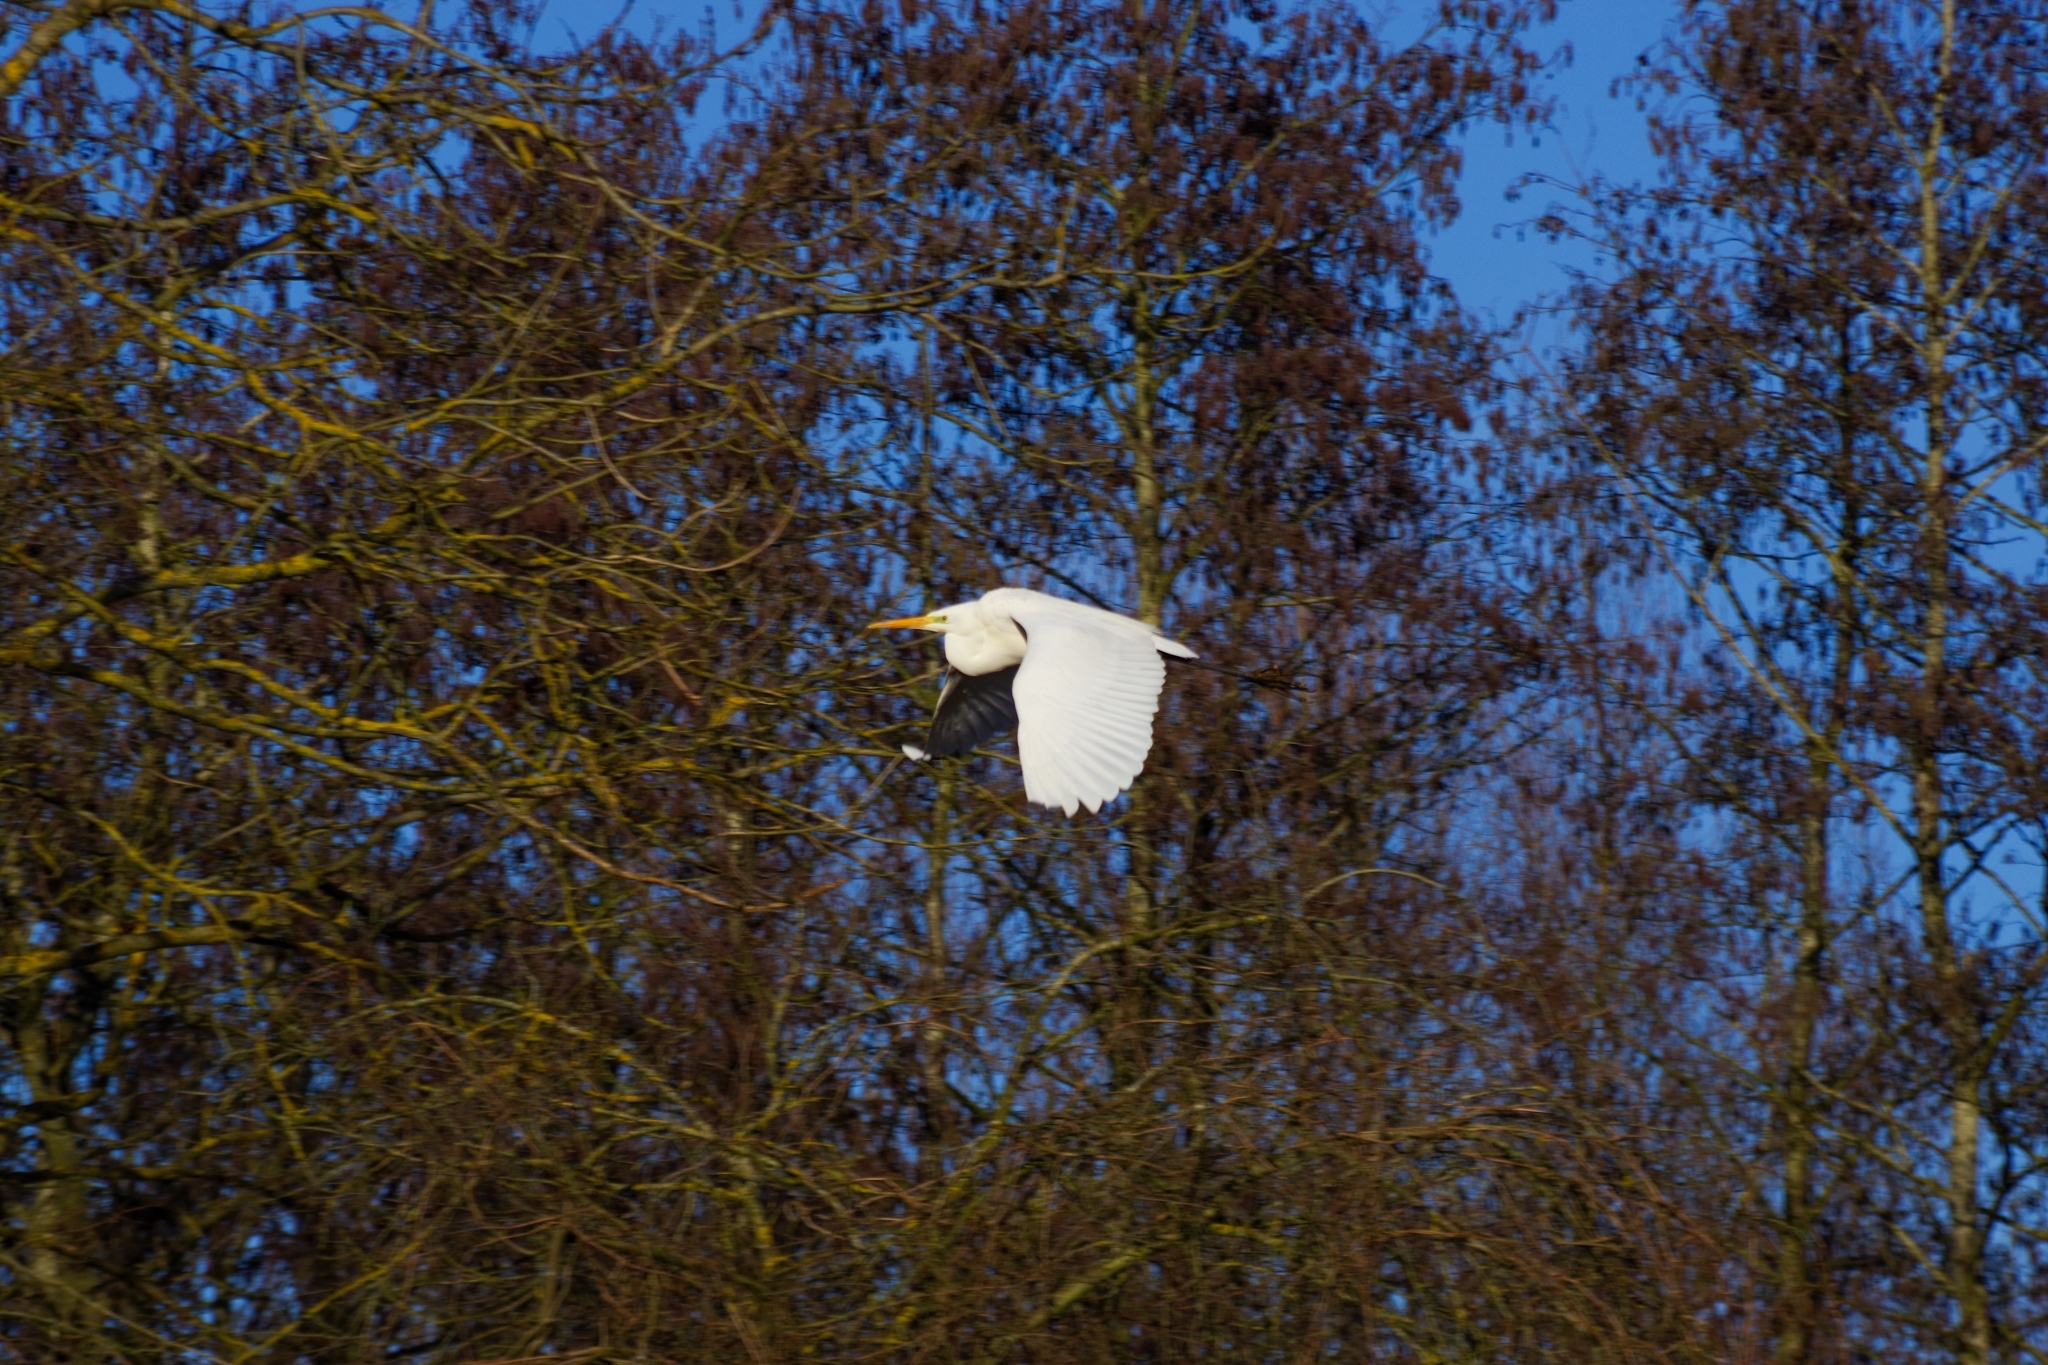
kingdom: Animalia
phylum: Chordata
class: Aves
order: Pelecaniformes
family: Ardeidae
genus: Ardea
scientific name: Ardea alba
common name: Great egret
